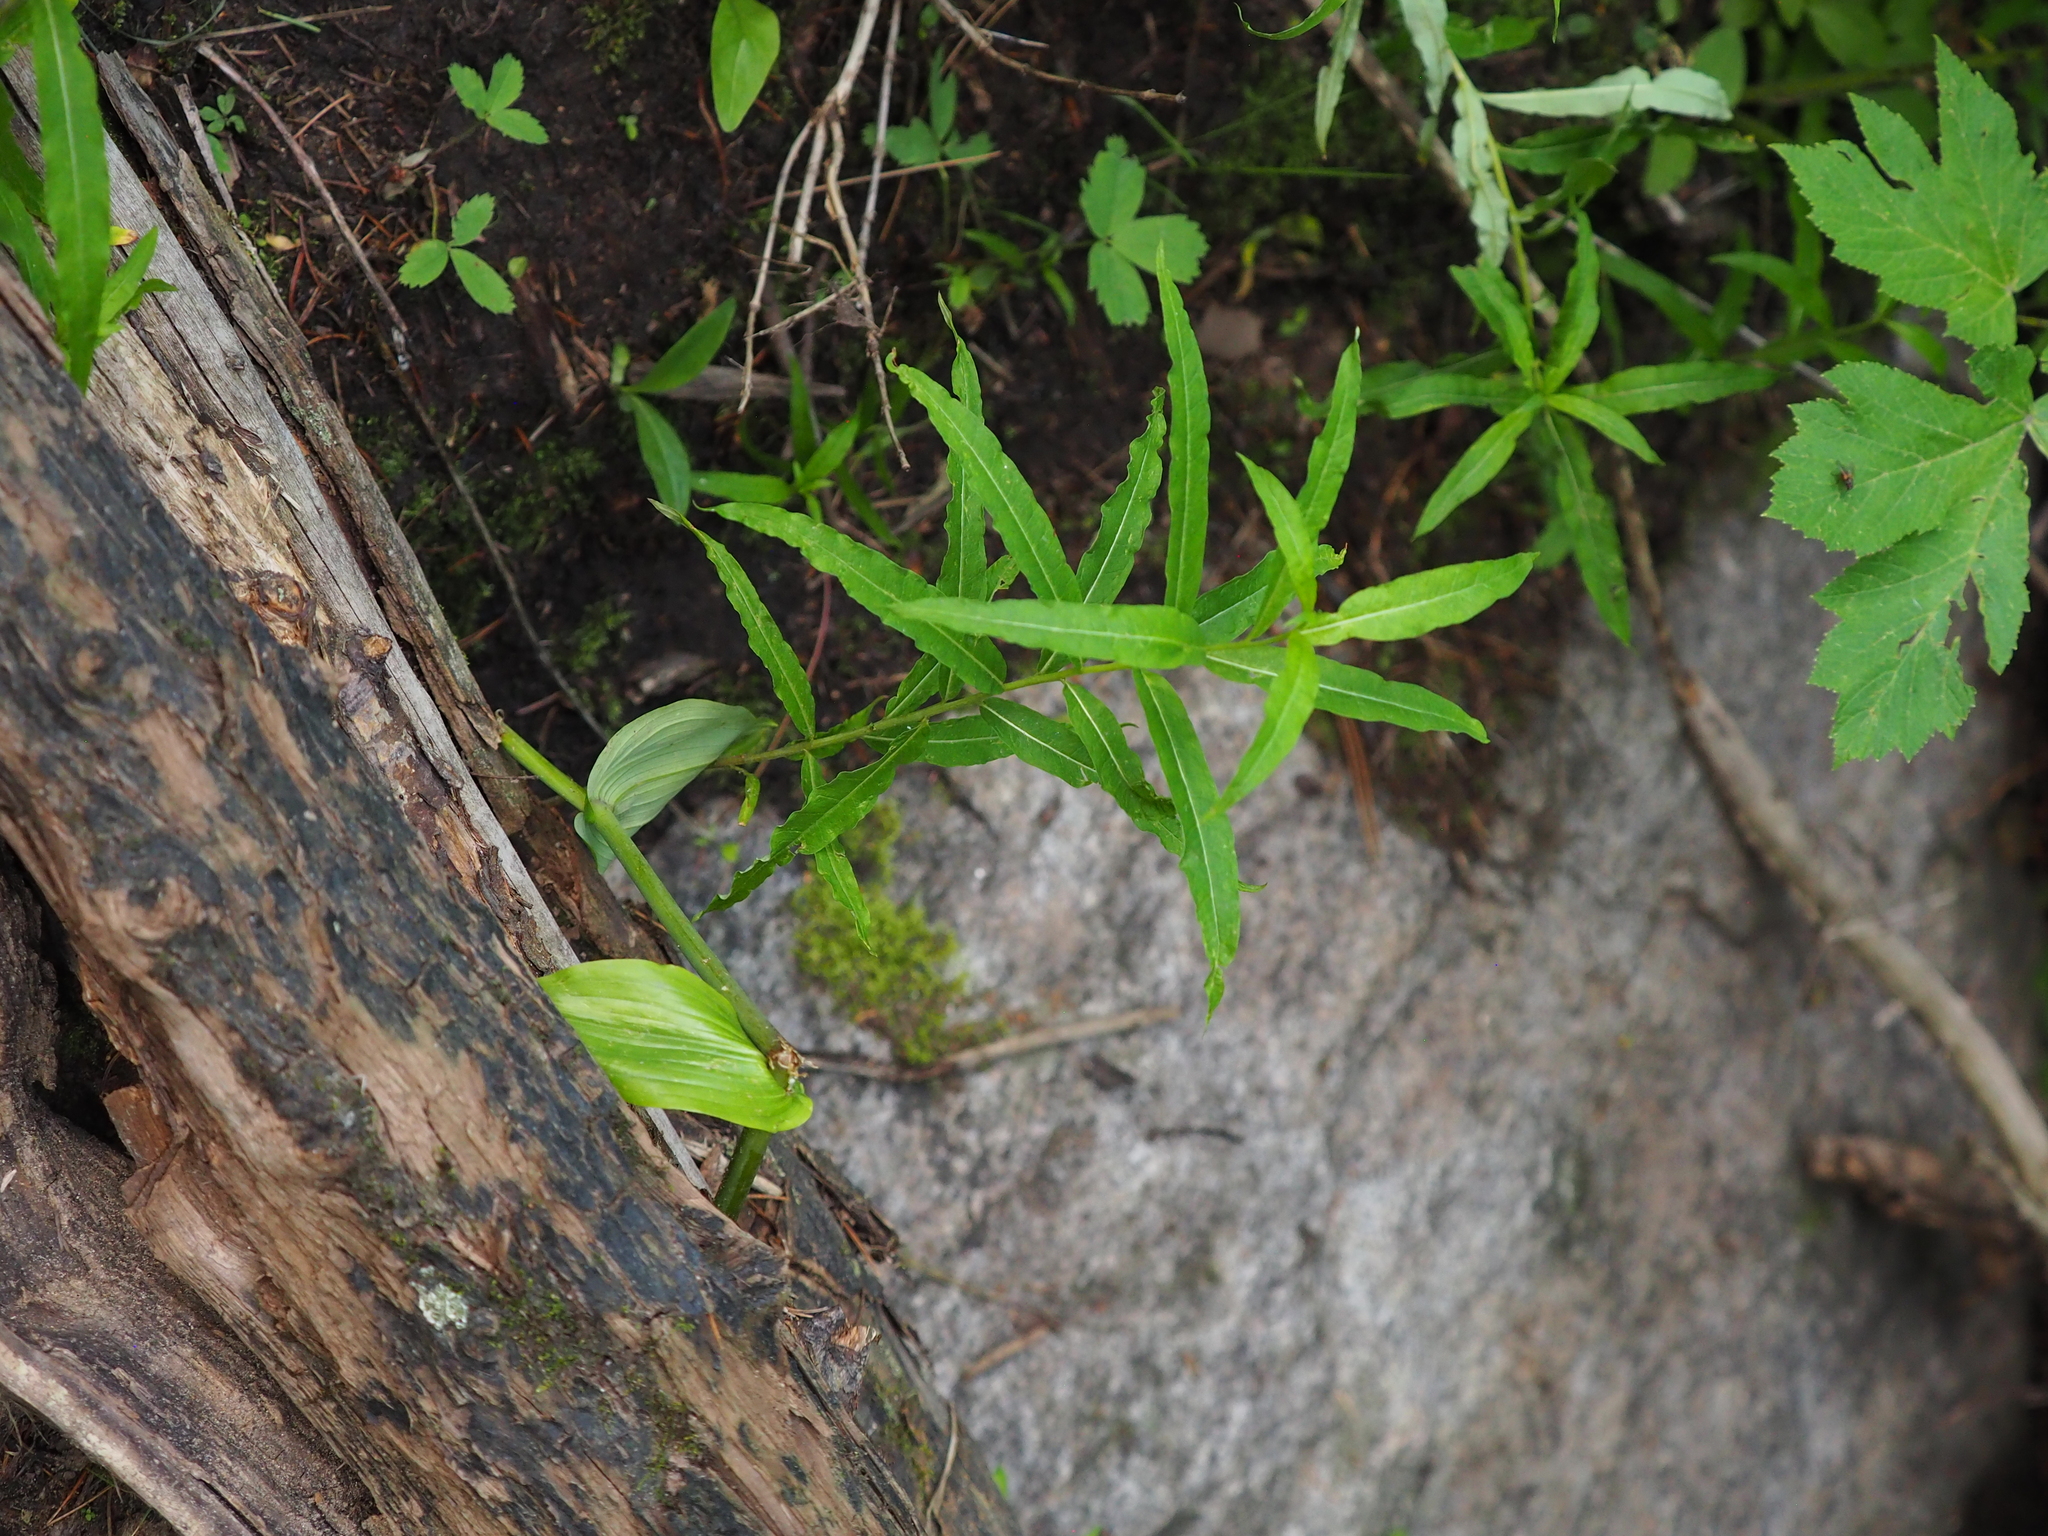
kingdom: Plantae
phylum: Tracheophyta
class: Magnoliopsida
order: Myrtales
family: Onagraceae
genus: Chamaenerion
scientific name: Chamaenerion angustifolium
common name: Fireweed
